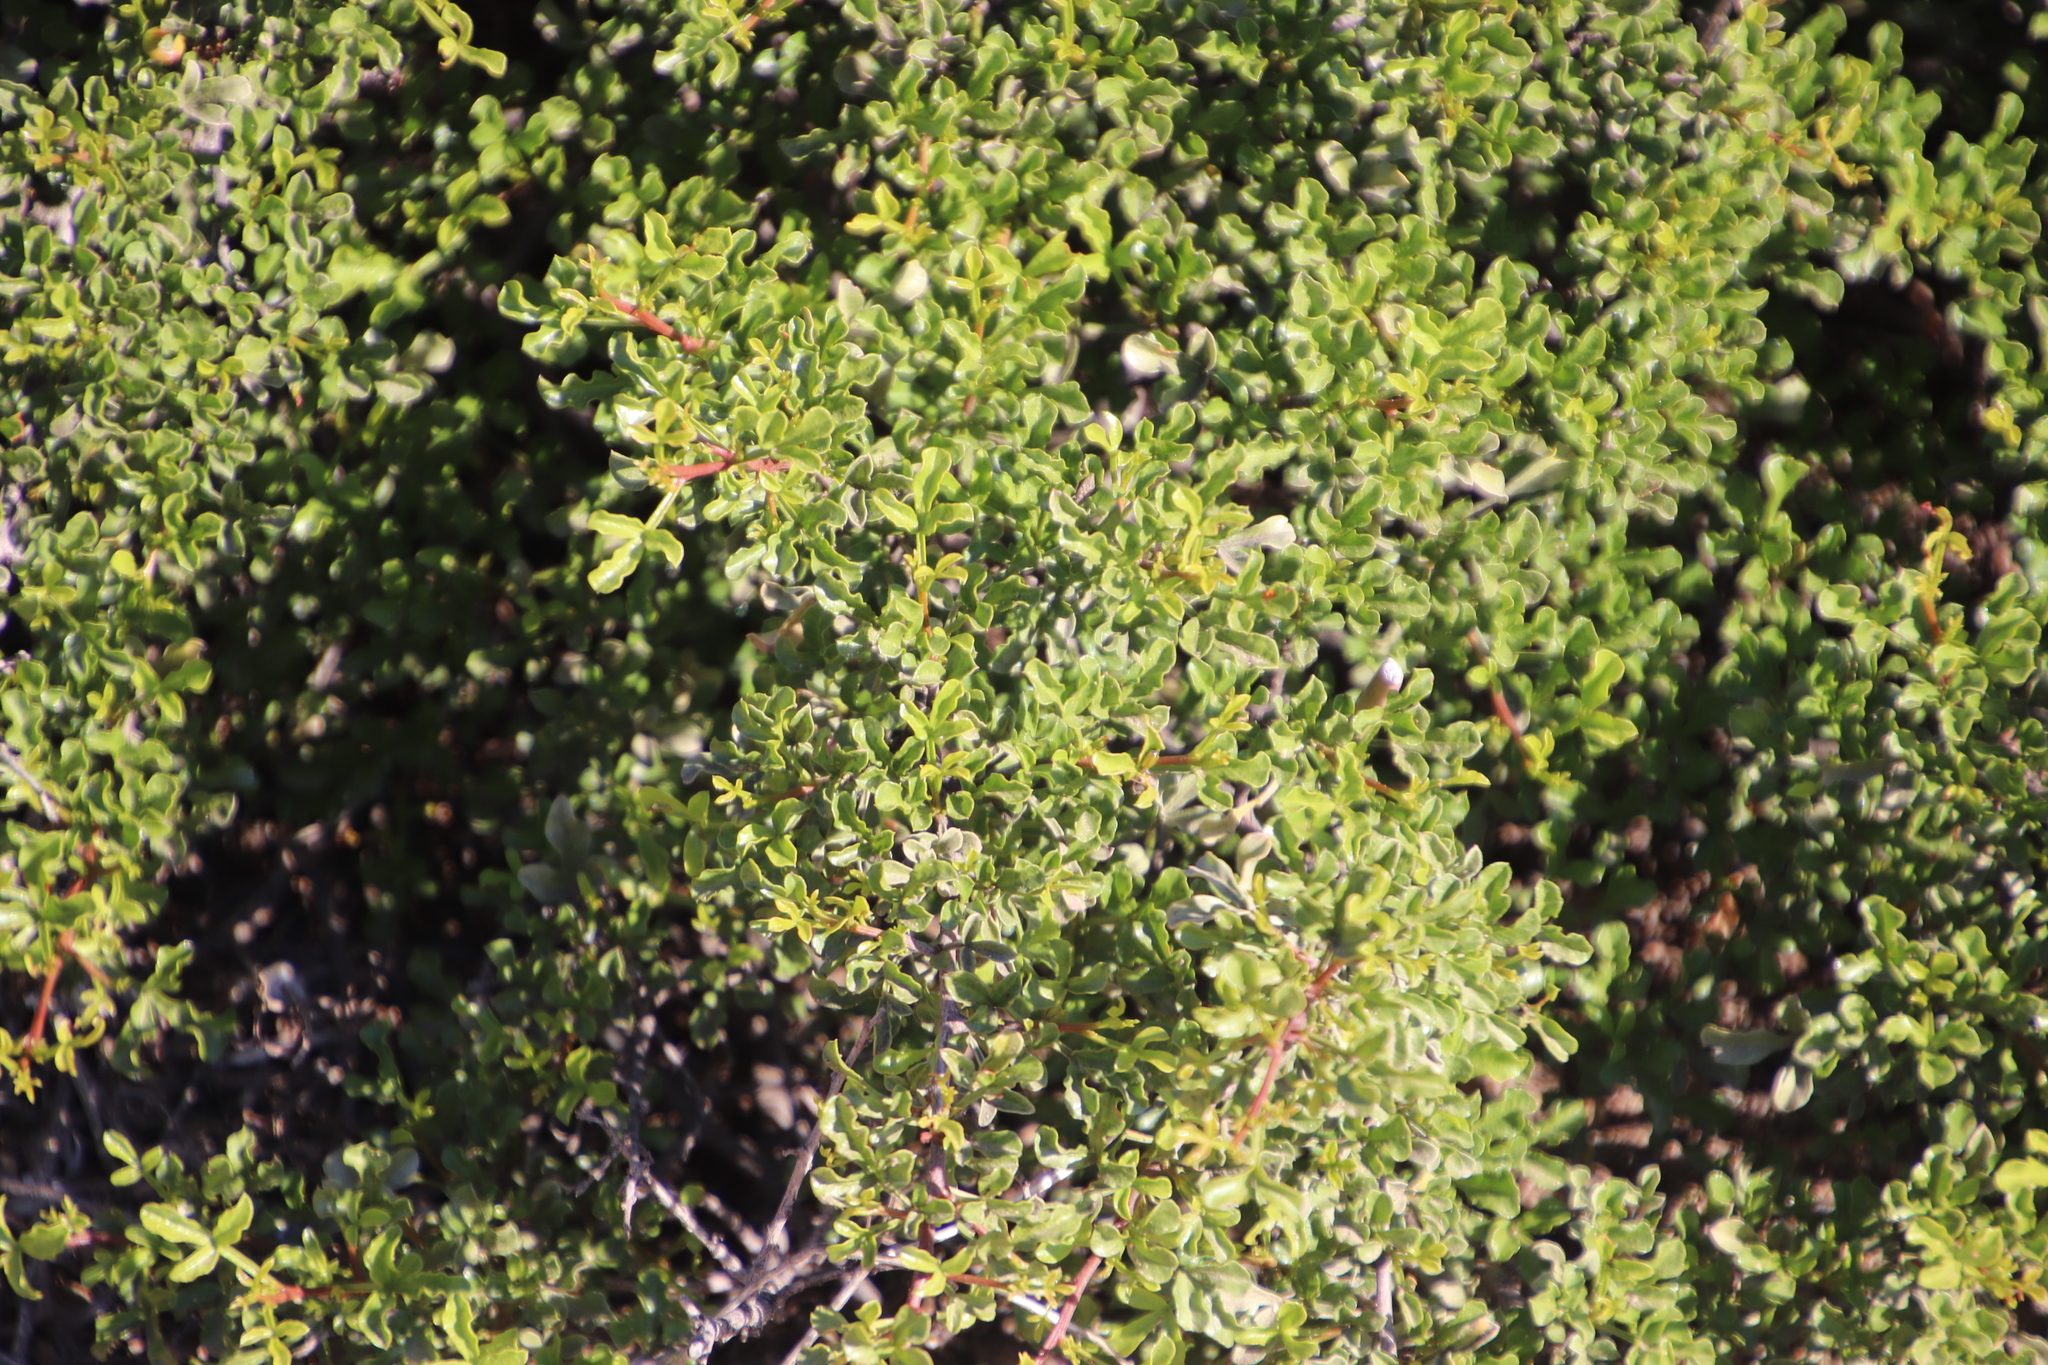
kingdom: Plantae
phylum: Tracheophyta
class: Magnoliopsida
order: Sapindales
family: Anacardiaceae
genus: Searsia
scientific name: Searsia undulata
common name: Namaqua kunibush
